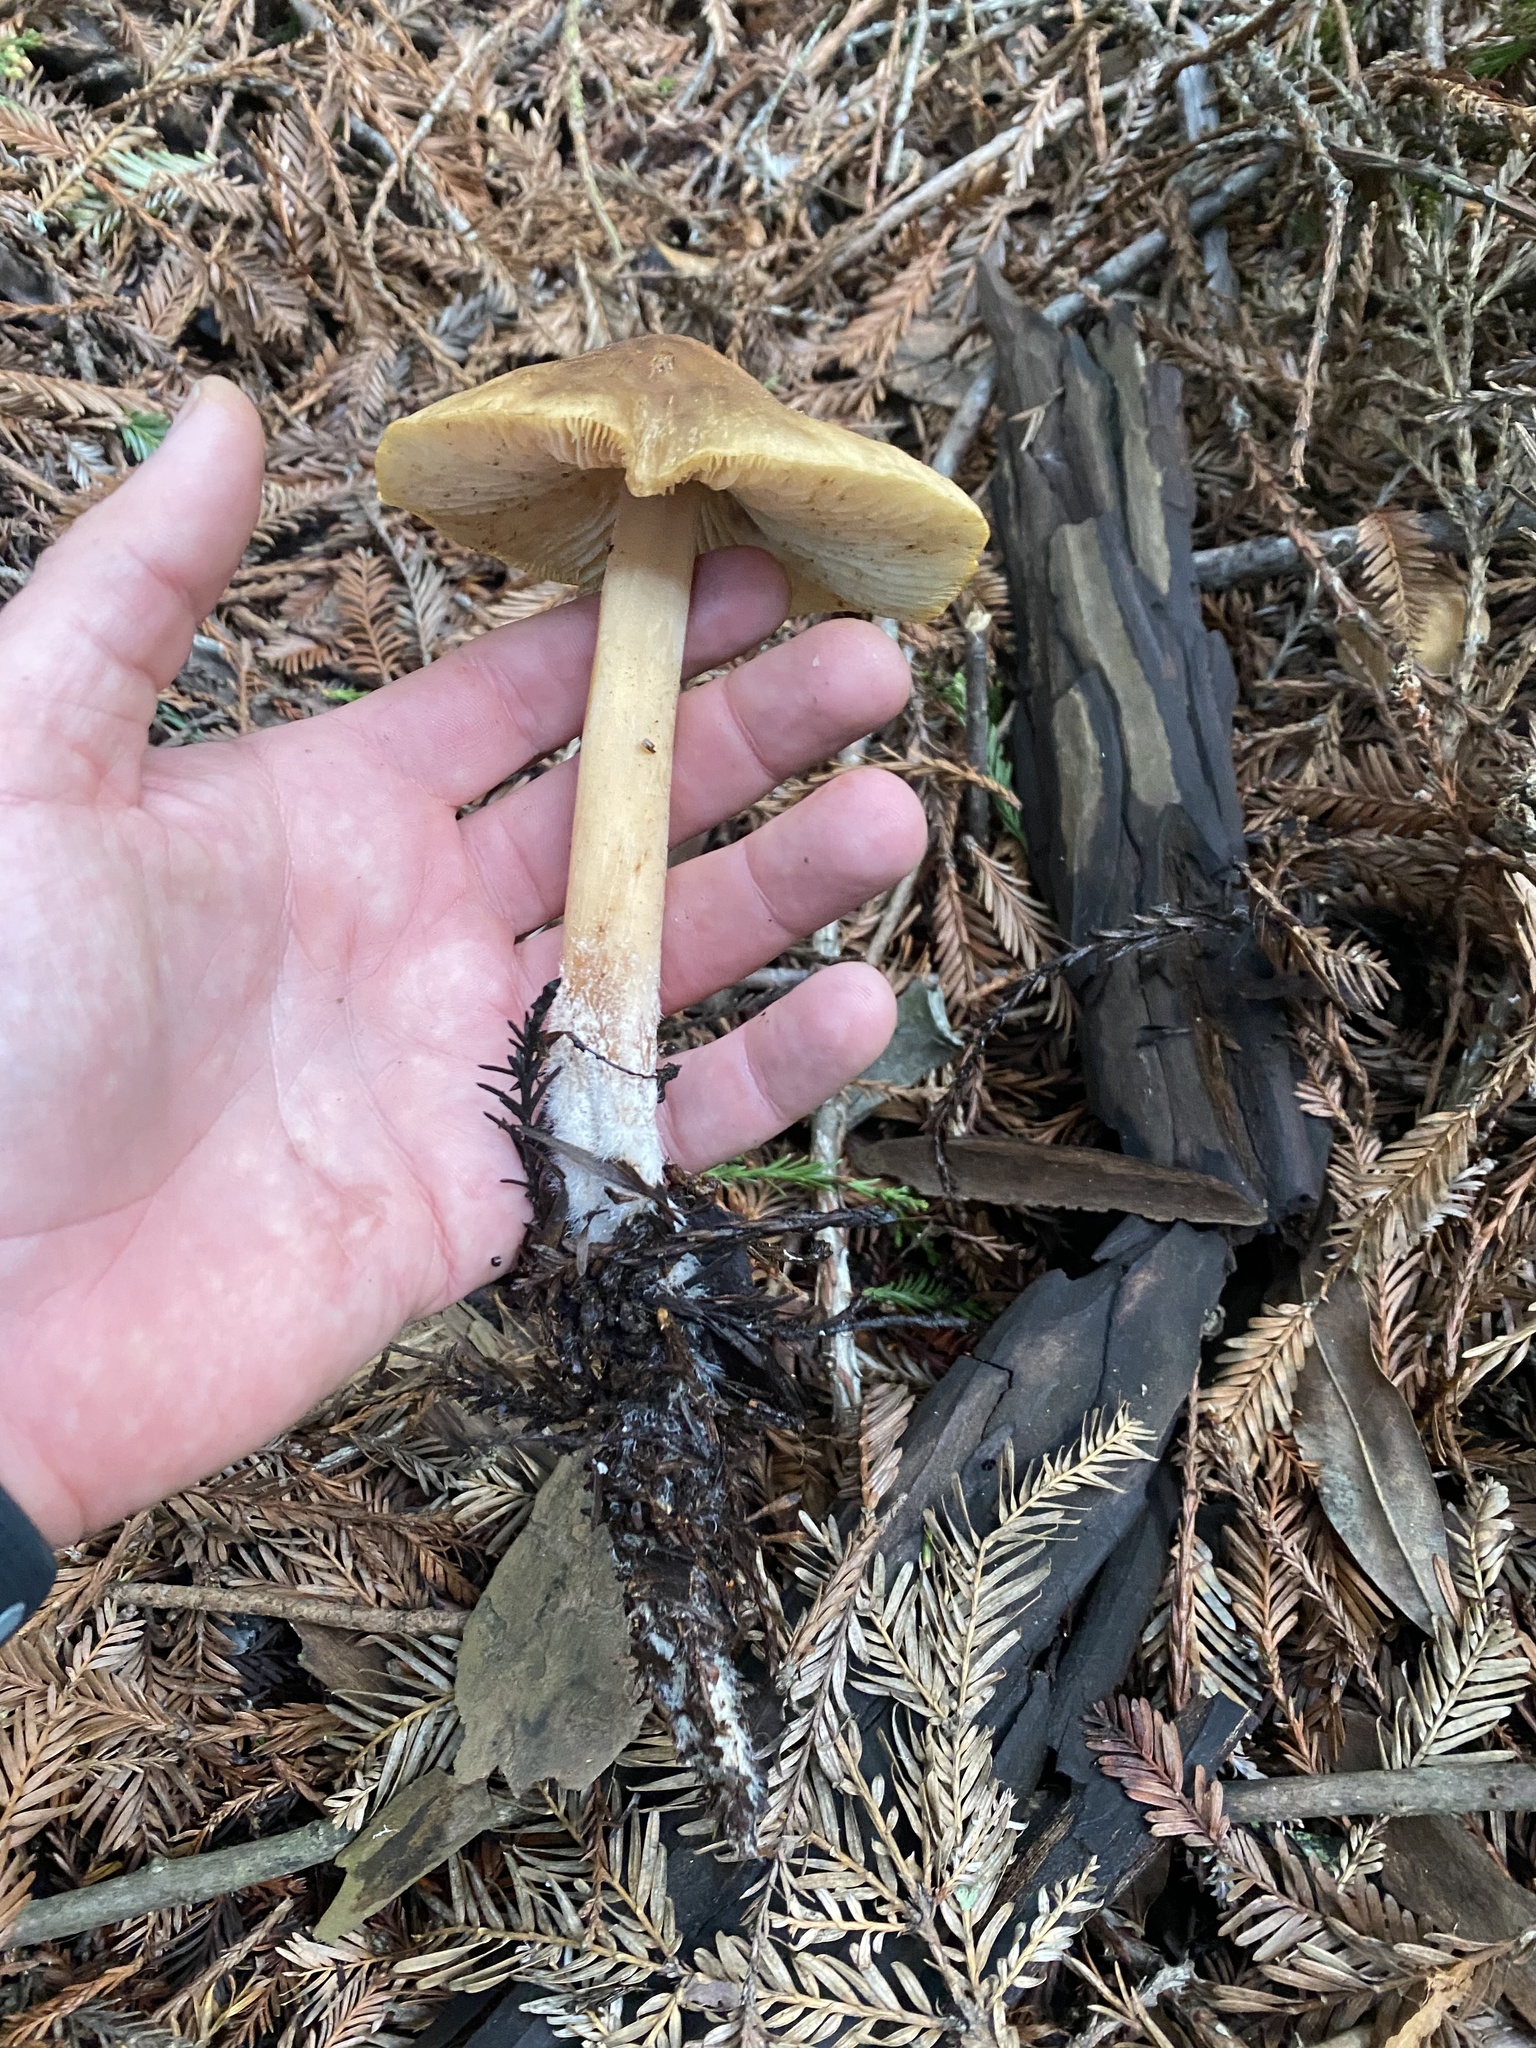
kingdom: Fungi
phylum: Basidiomycota
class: Agaricomycetes
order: Agaricales
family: Tricholomataceae
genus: Caulorhiza
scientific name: Caulorhiza umbonata
